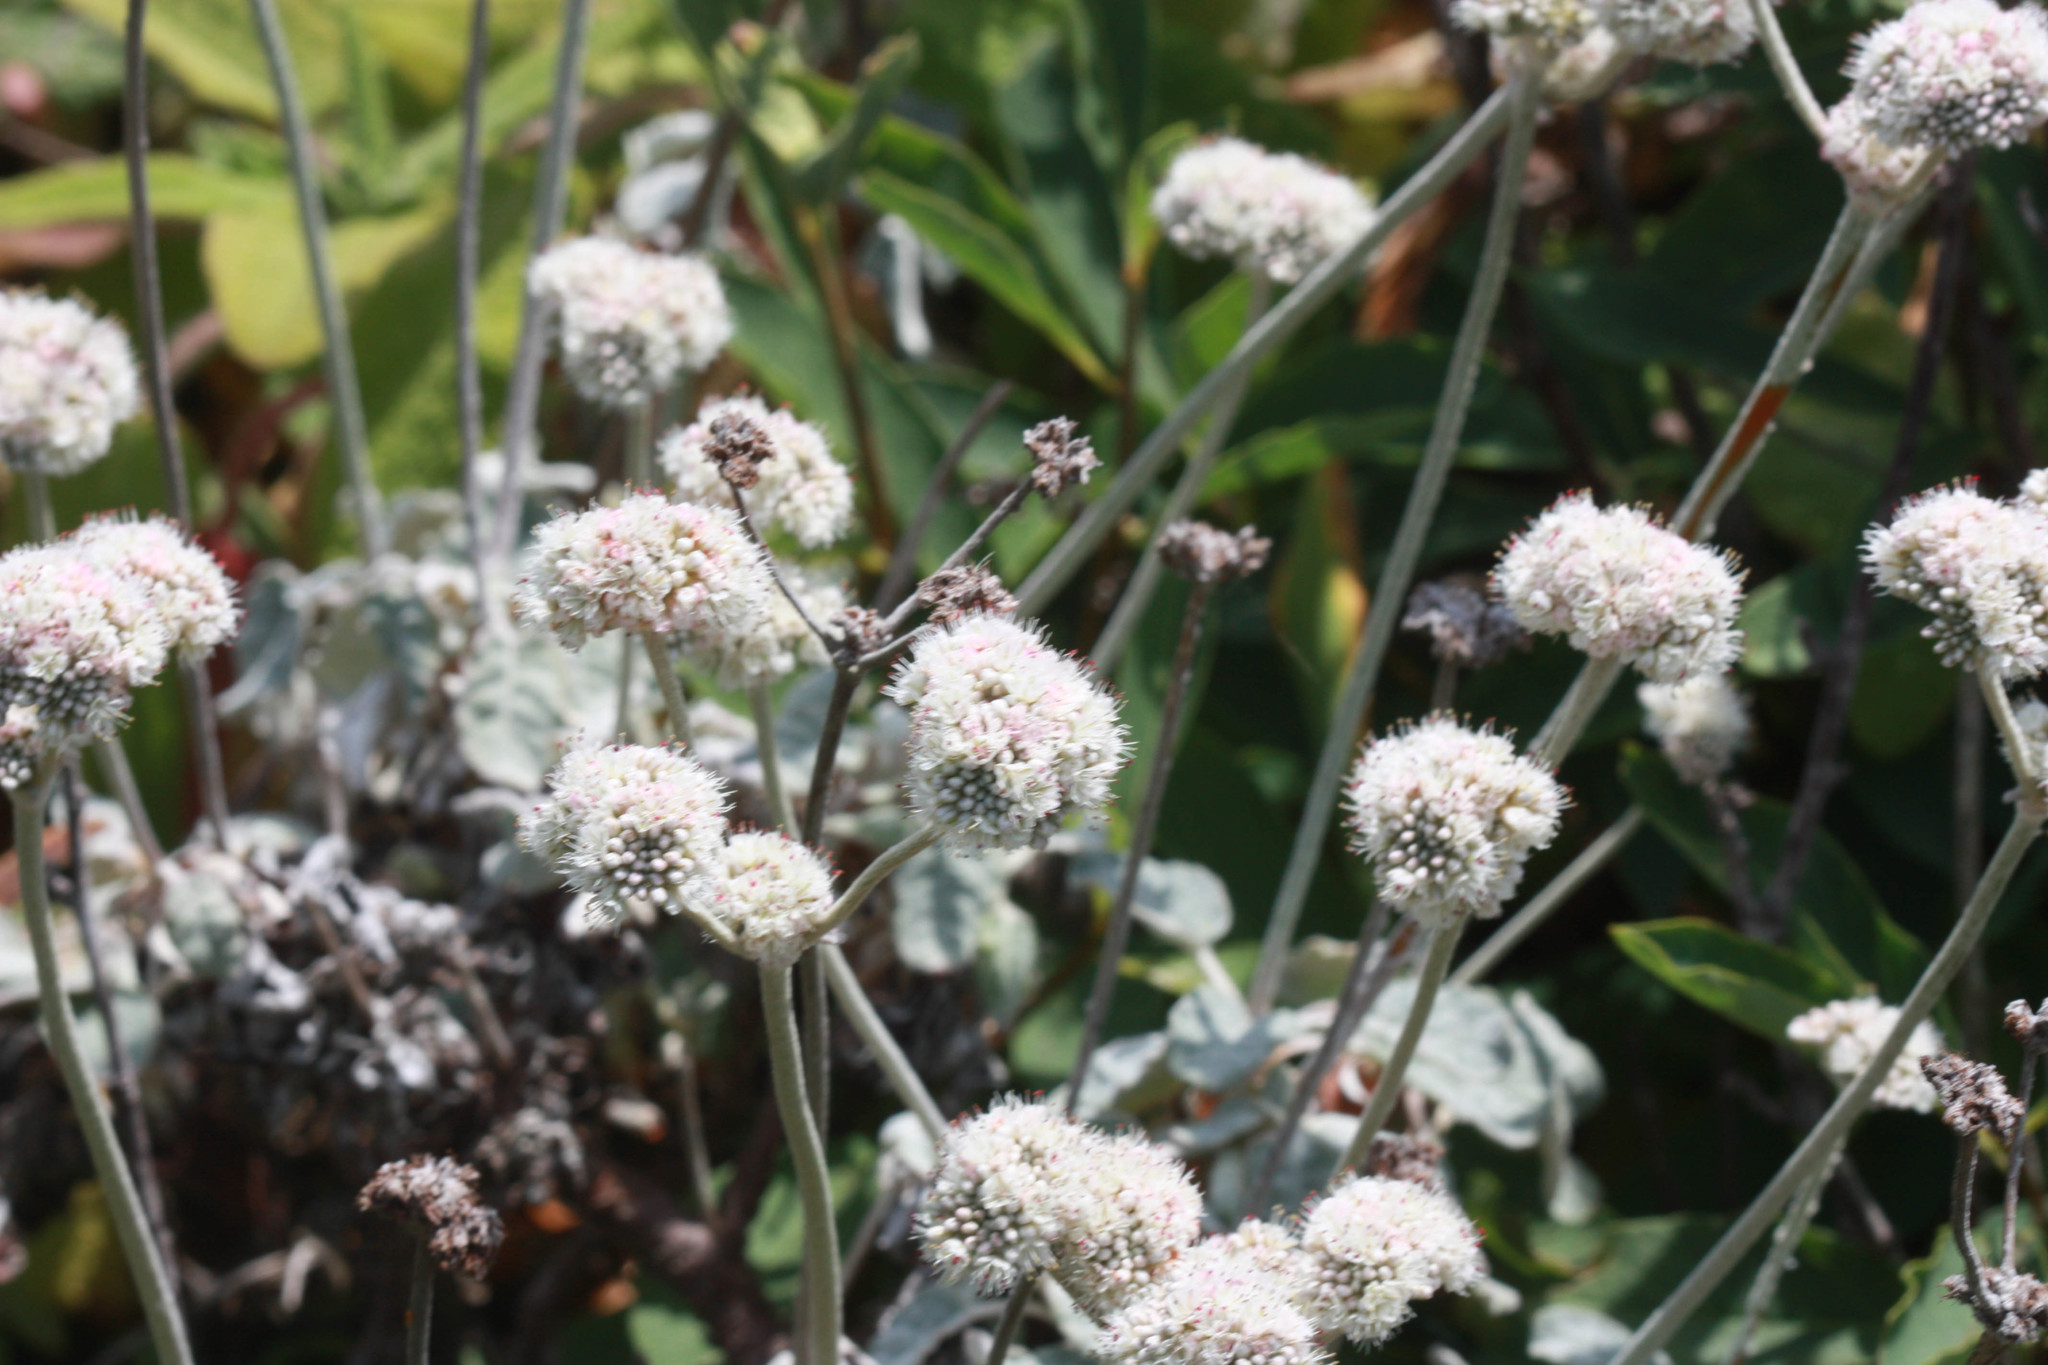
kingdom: Plantae
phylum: Tracheophyta
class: Magnoliopsida
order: Caryophyllales
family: Polygonaceae
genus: Eriogonum
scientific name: Eriogonum latifolium
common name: Seaside wild buckwheat
